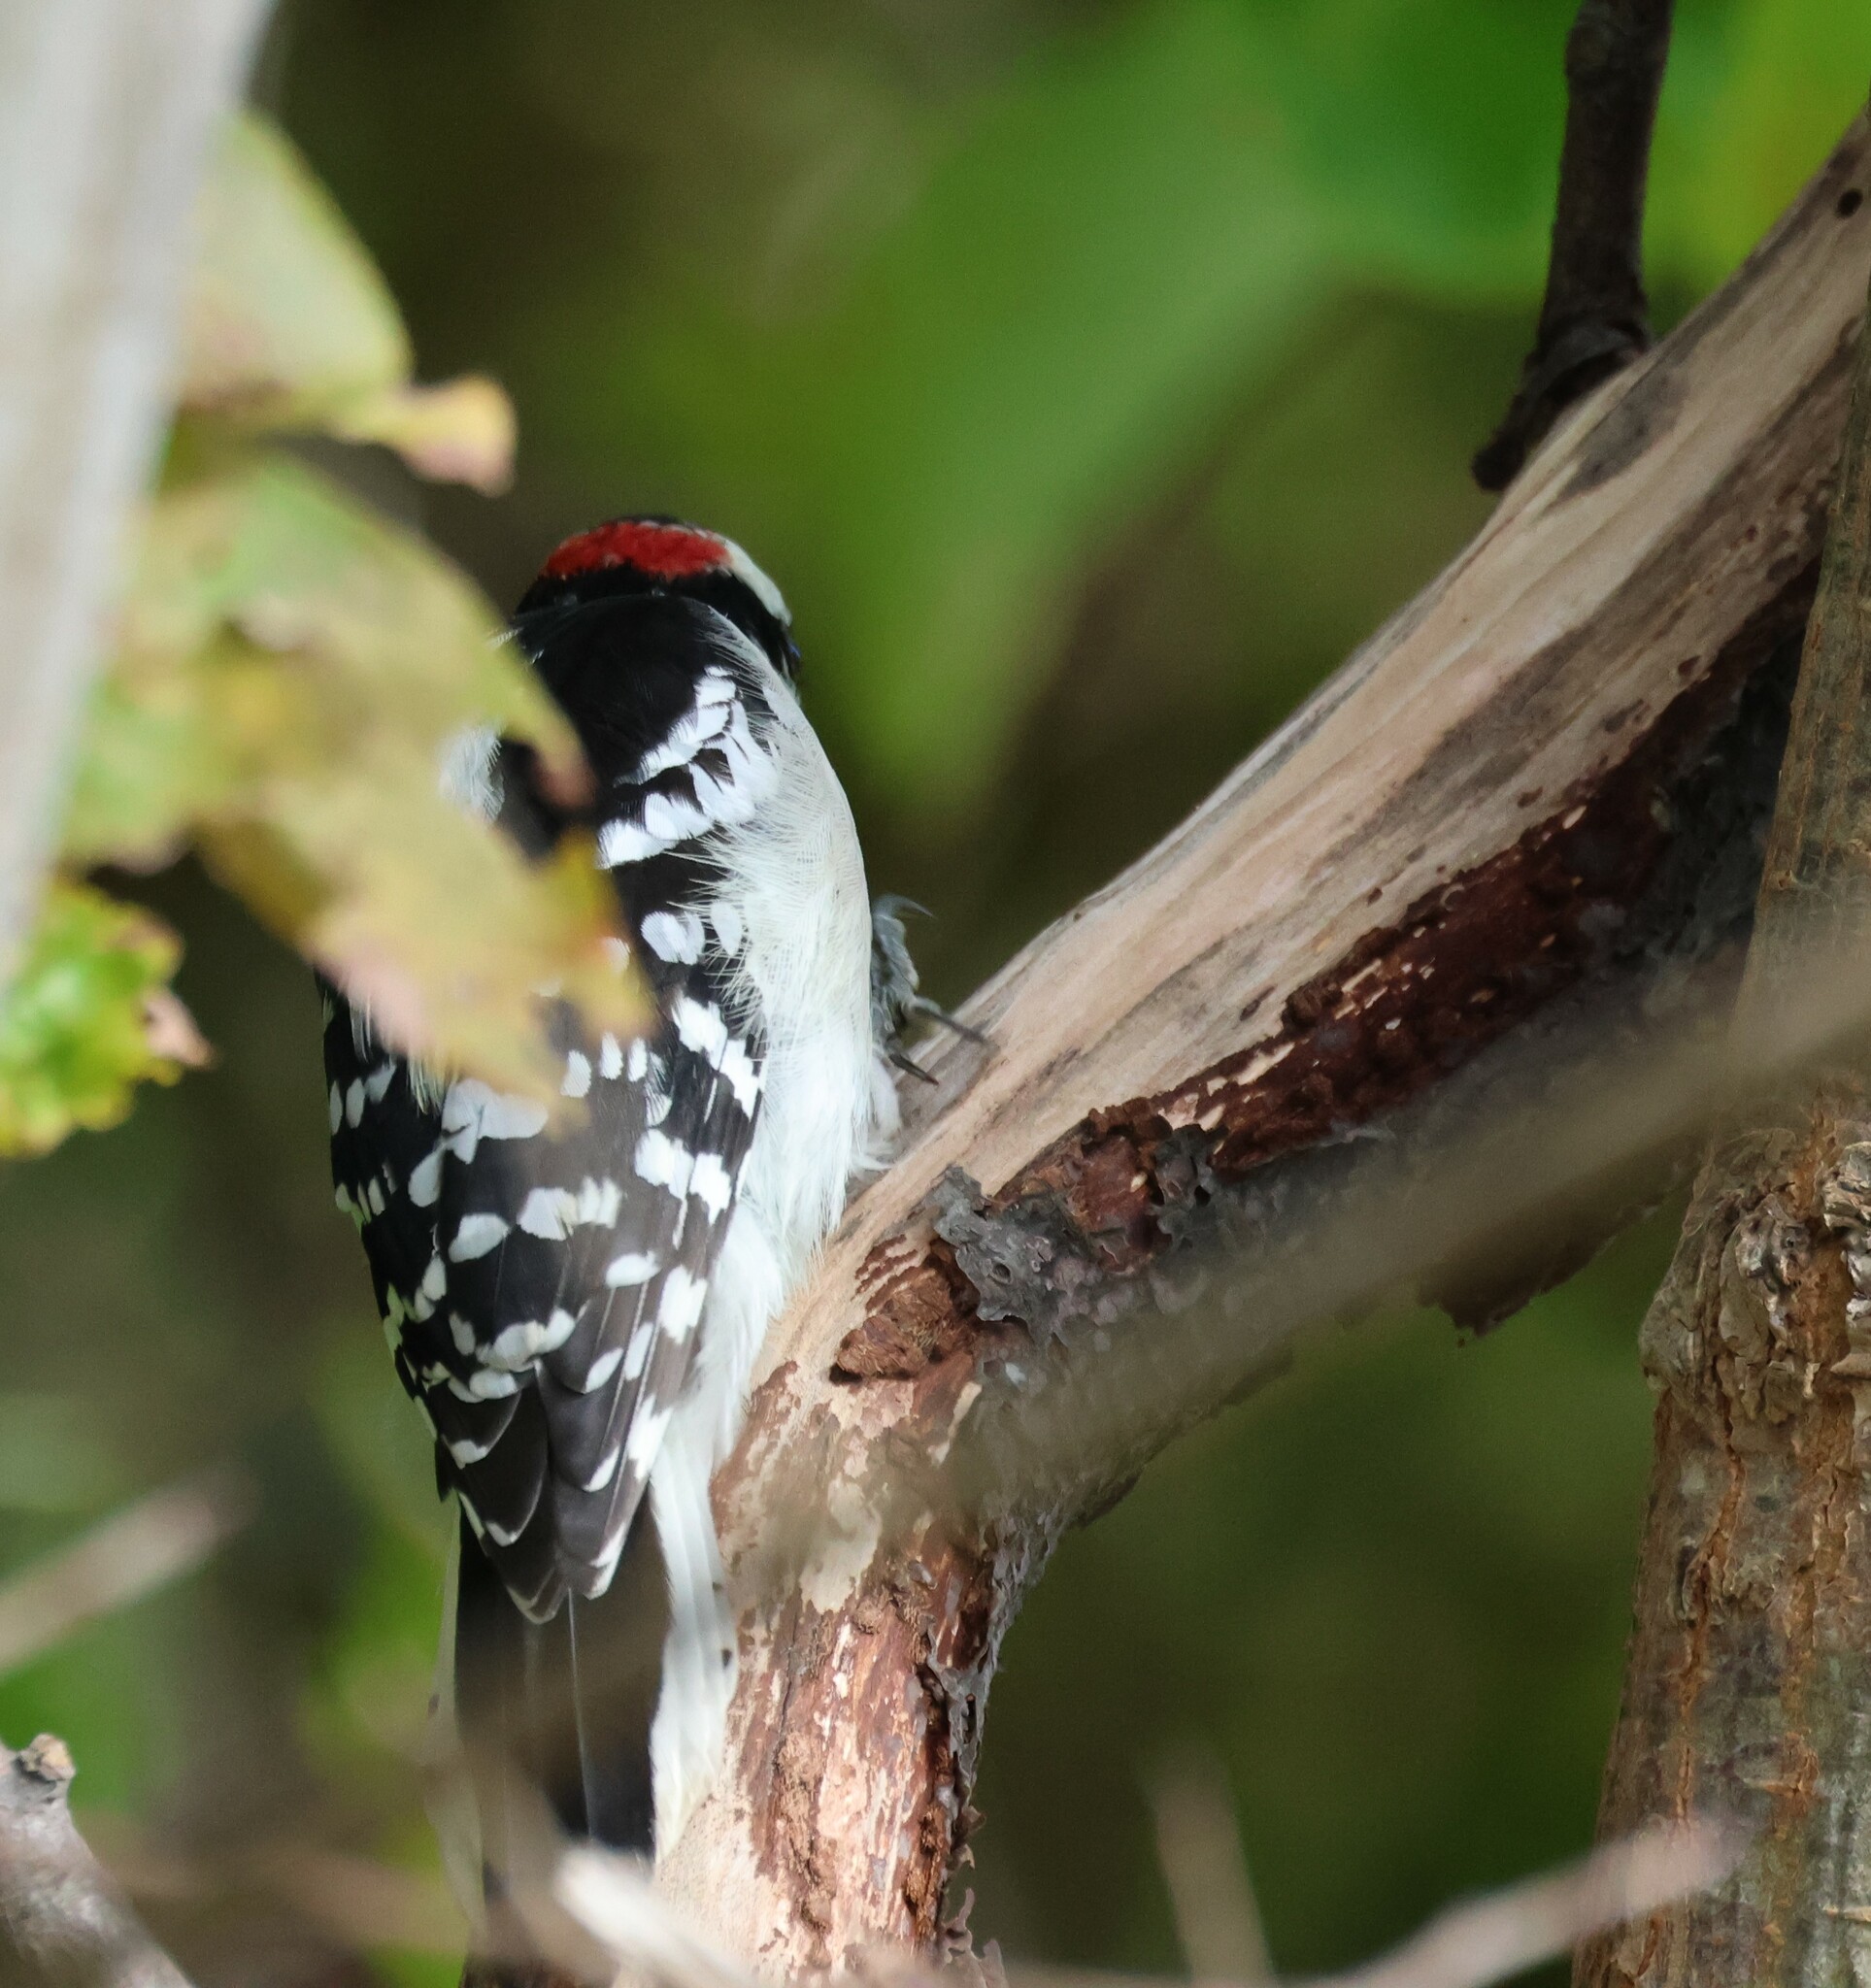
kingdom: Animalia
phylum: Chordata
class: Aves
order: Piciformes
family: Picidae
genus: Dryobates
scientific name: Dryobates pubescens
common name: Downy woodpecker
